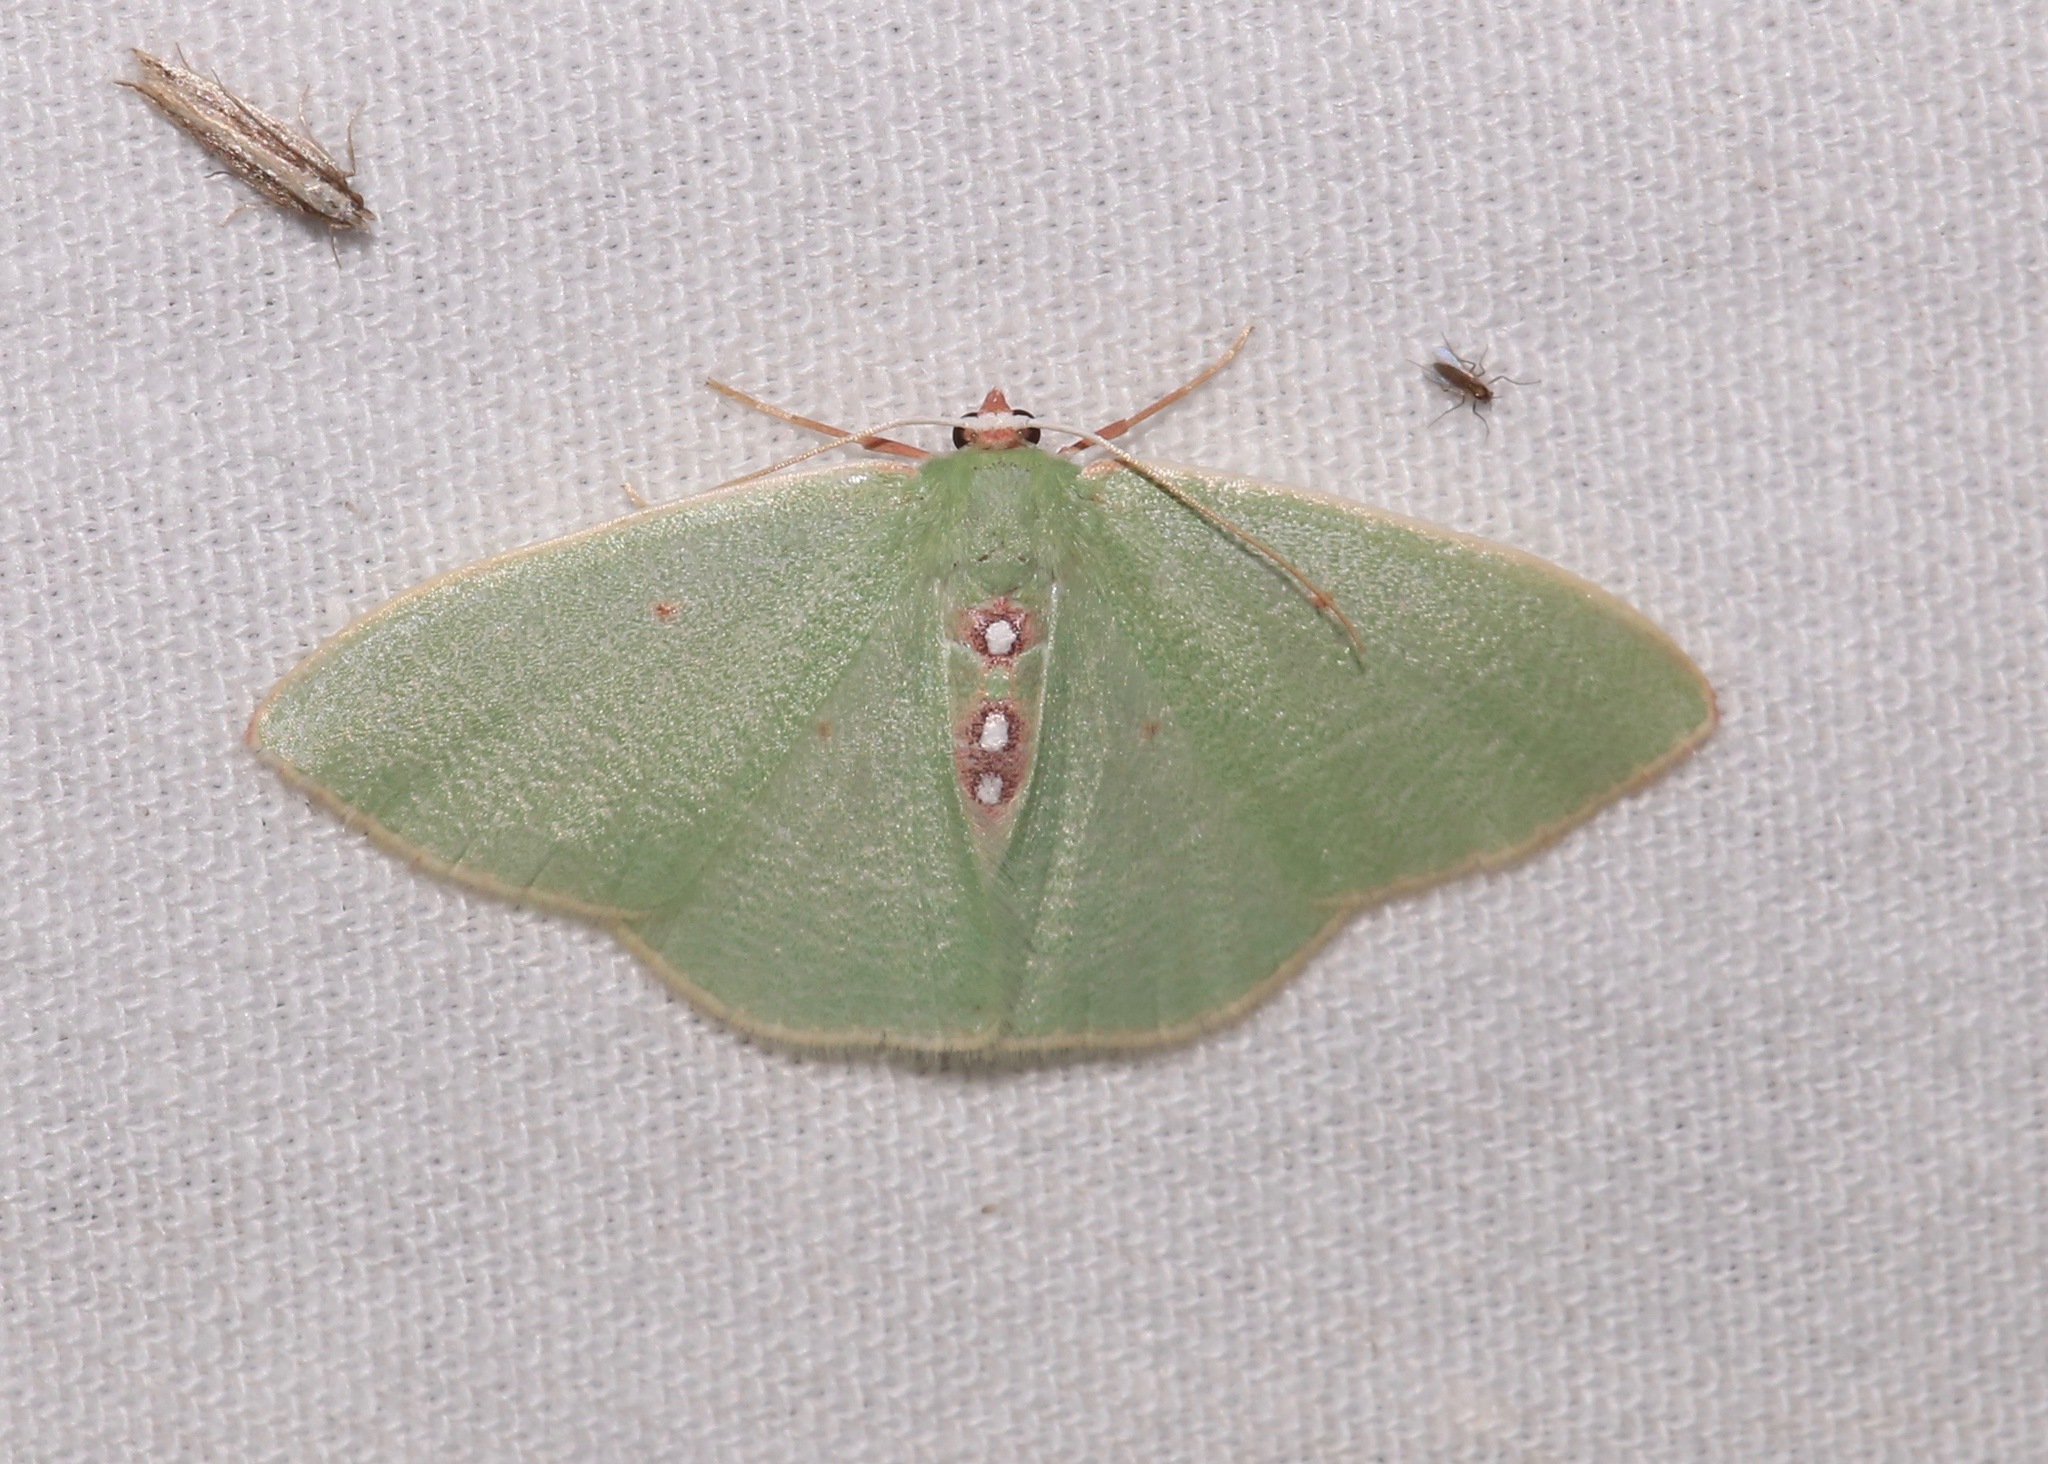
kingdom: Animalia
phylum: Arthropoda
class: Insecta
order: Lepidoptera
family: Geometridae
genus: Nemoria
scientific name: Nemoria darwiniata
